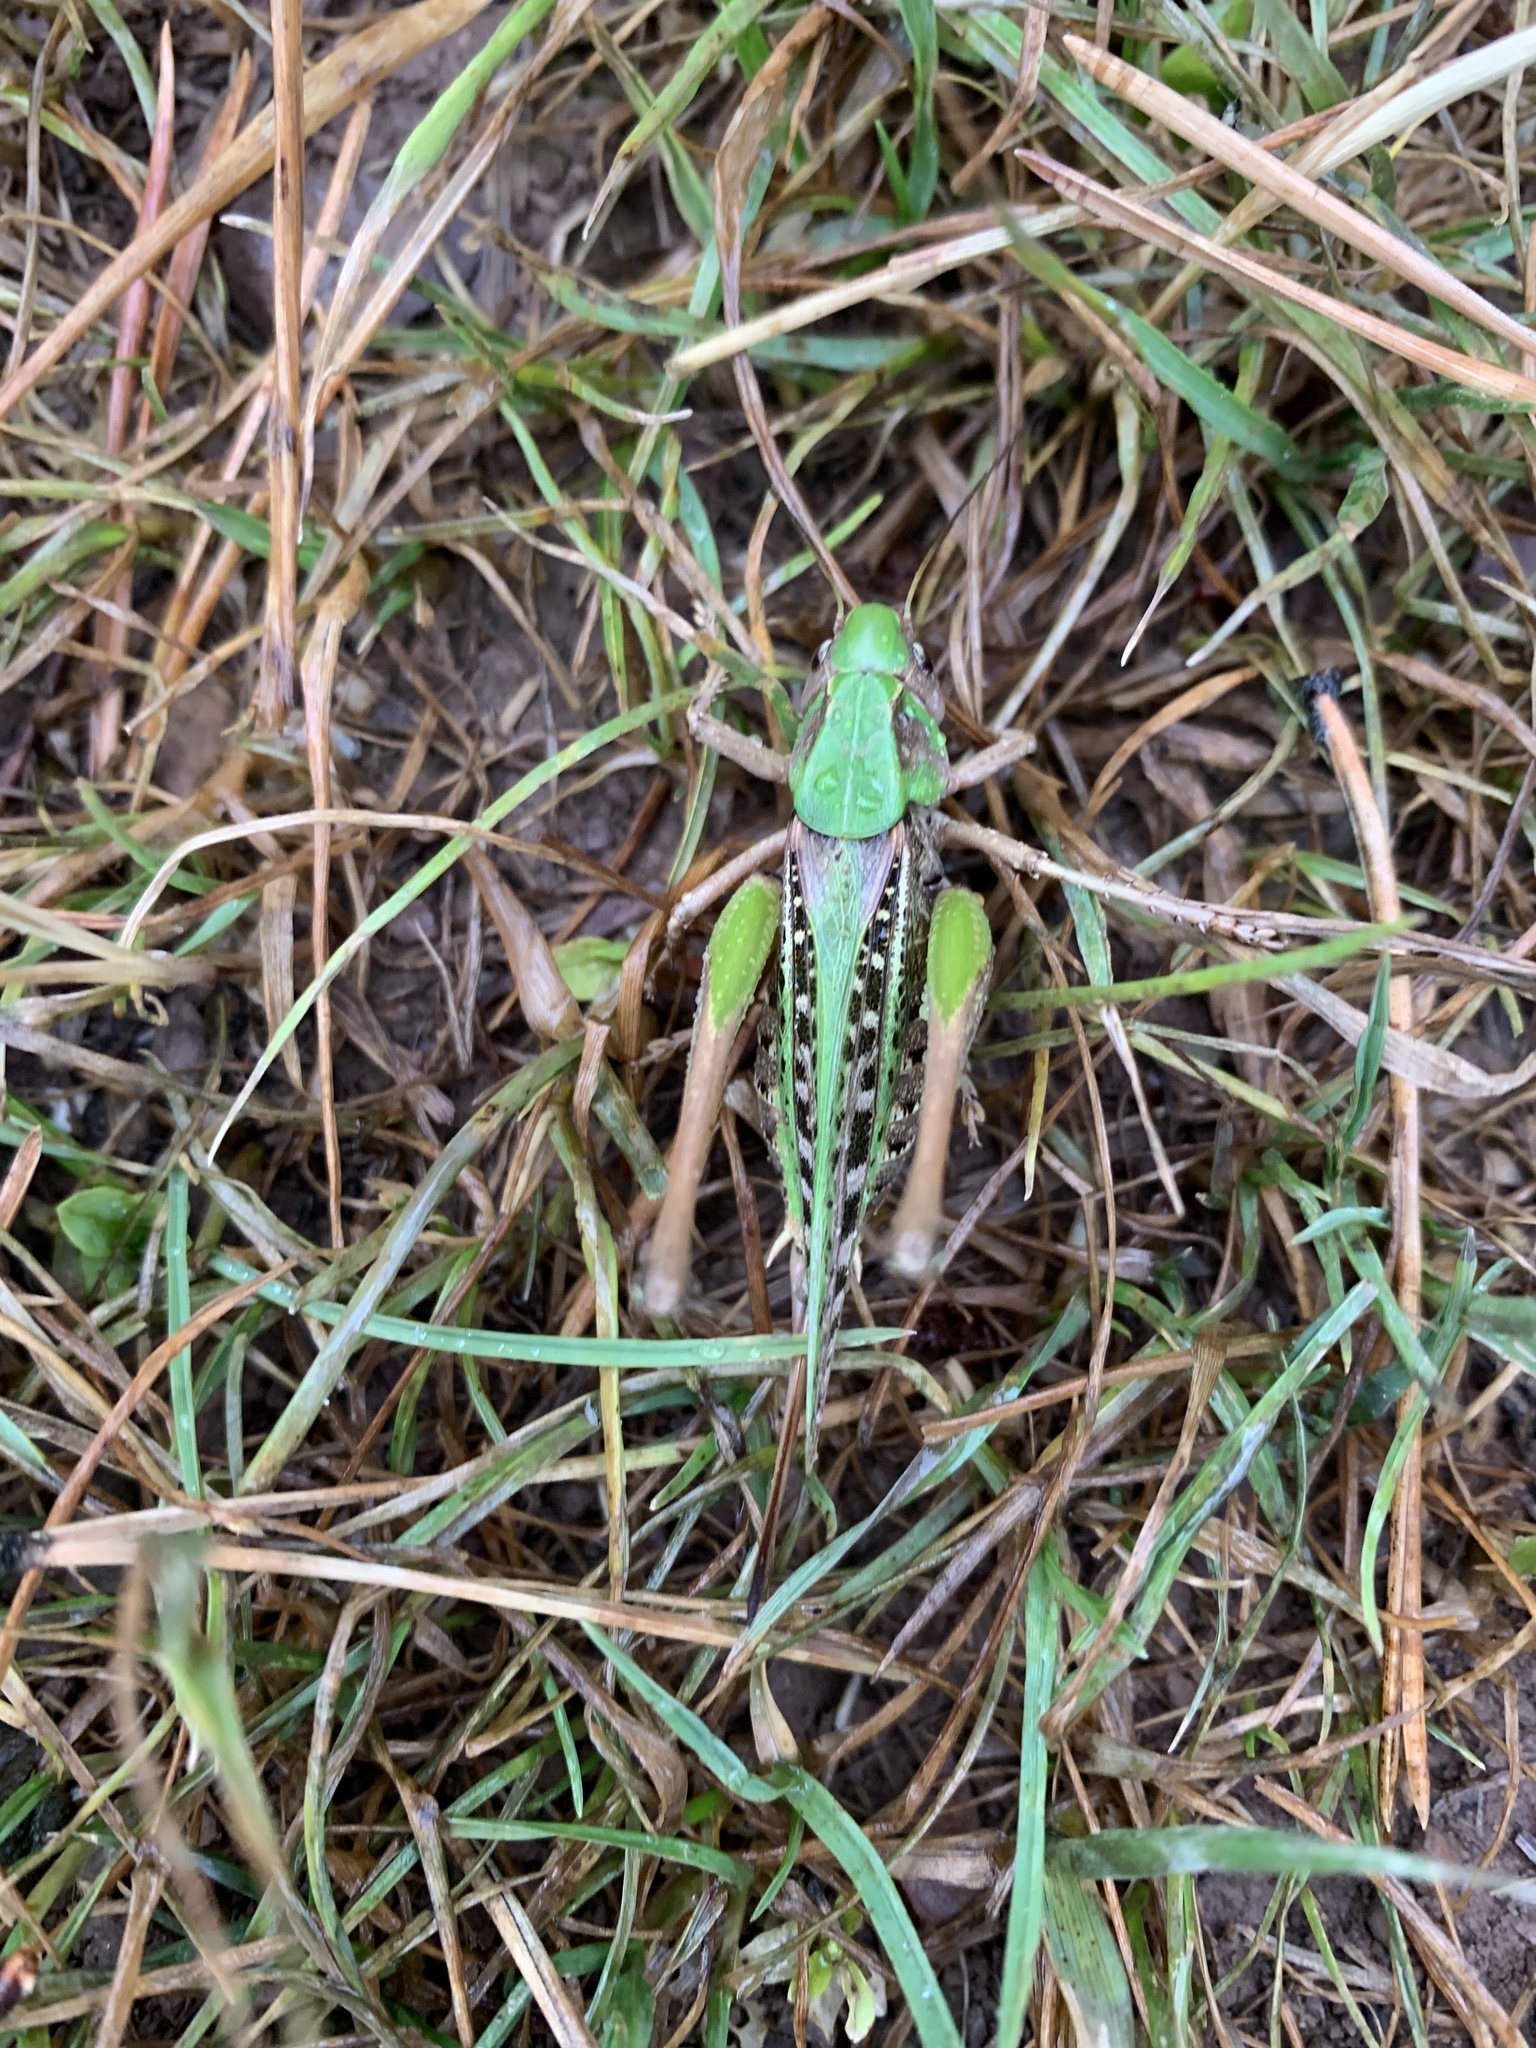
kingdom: Animalia
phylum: Arthropoda
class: Insecta
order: Orthoptera
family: Tettigoniidae
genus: Decticus
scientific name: Decticus verrucivorus
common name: Wart-biter
